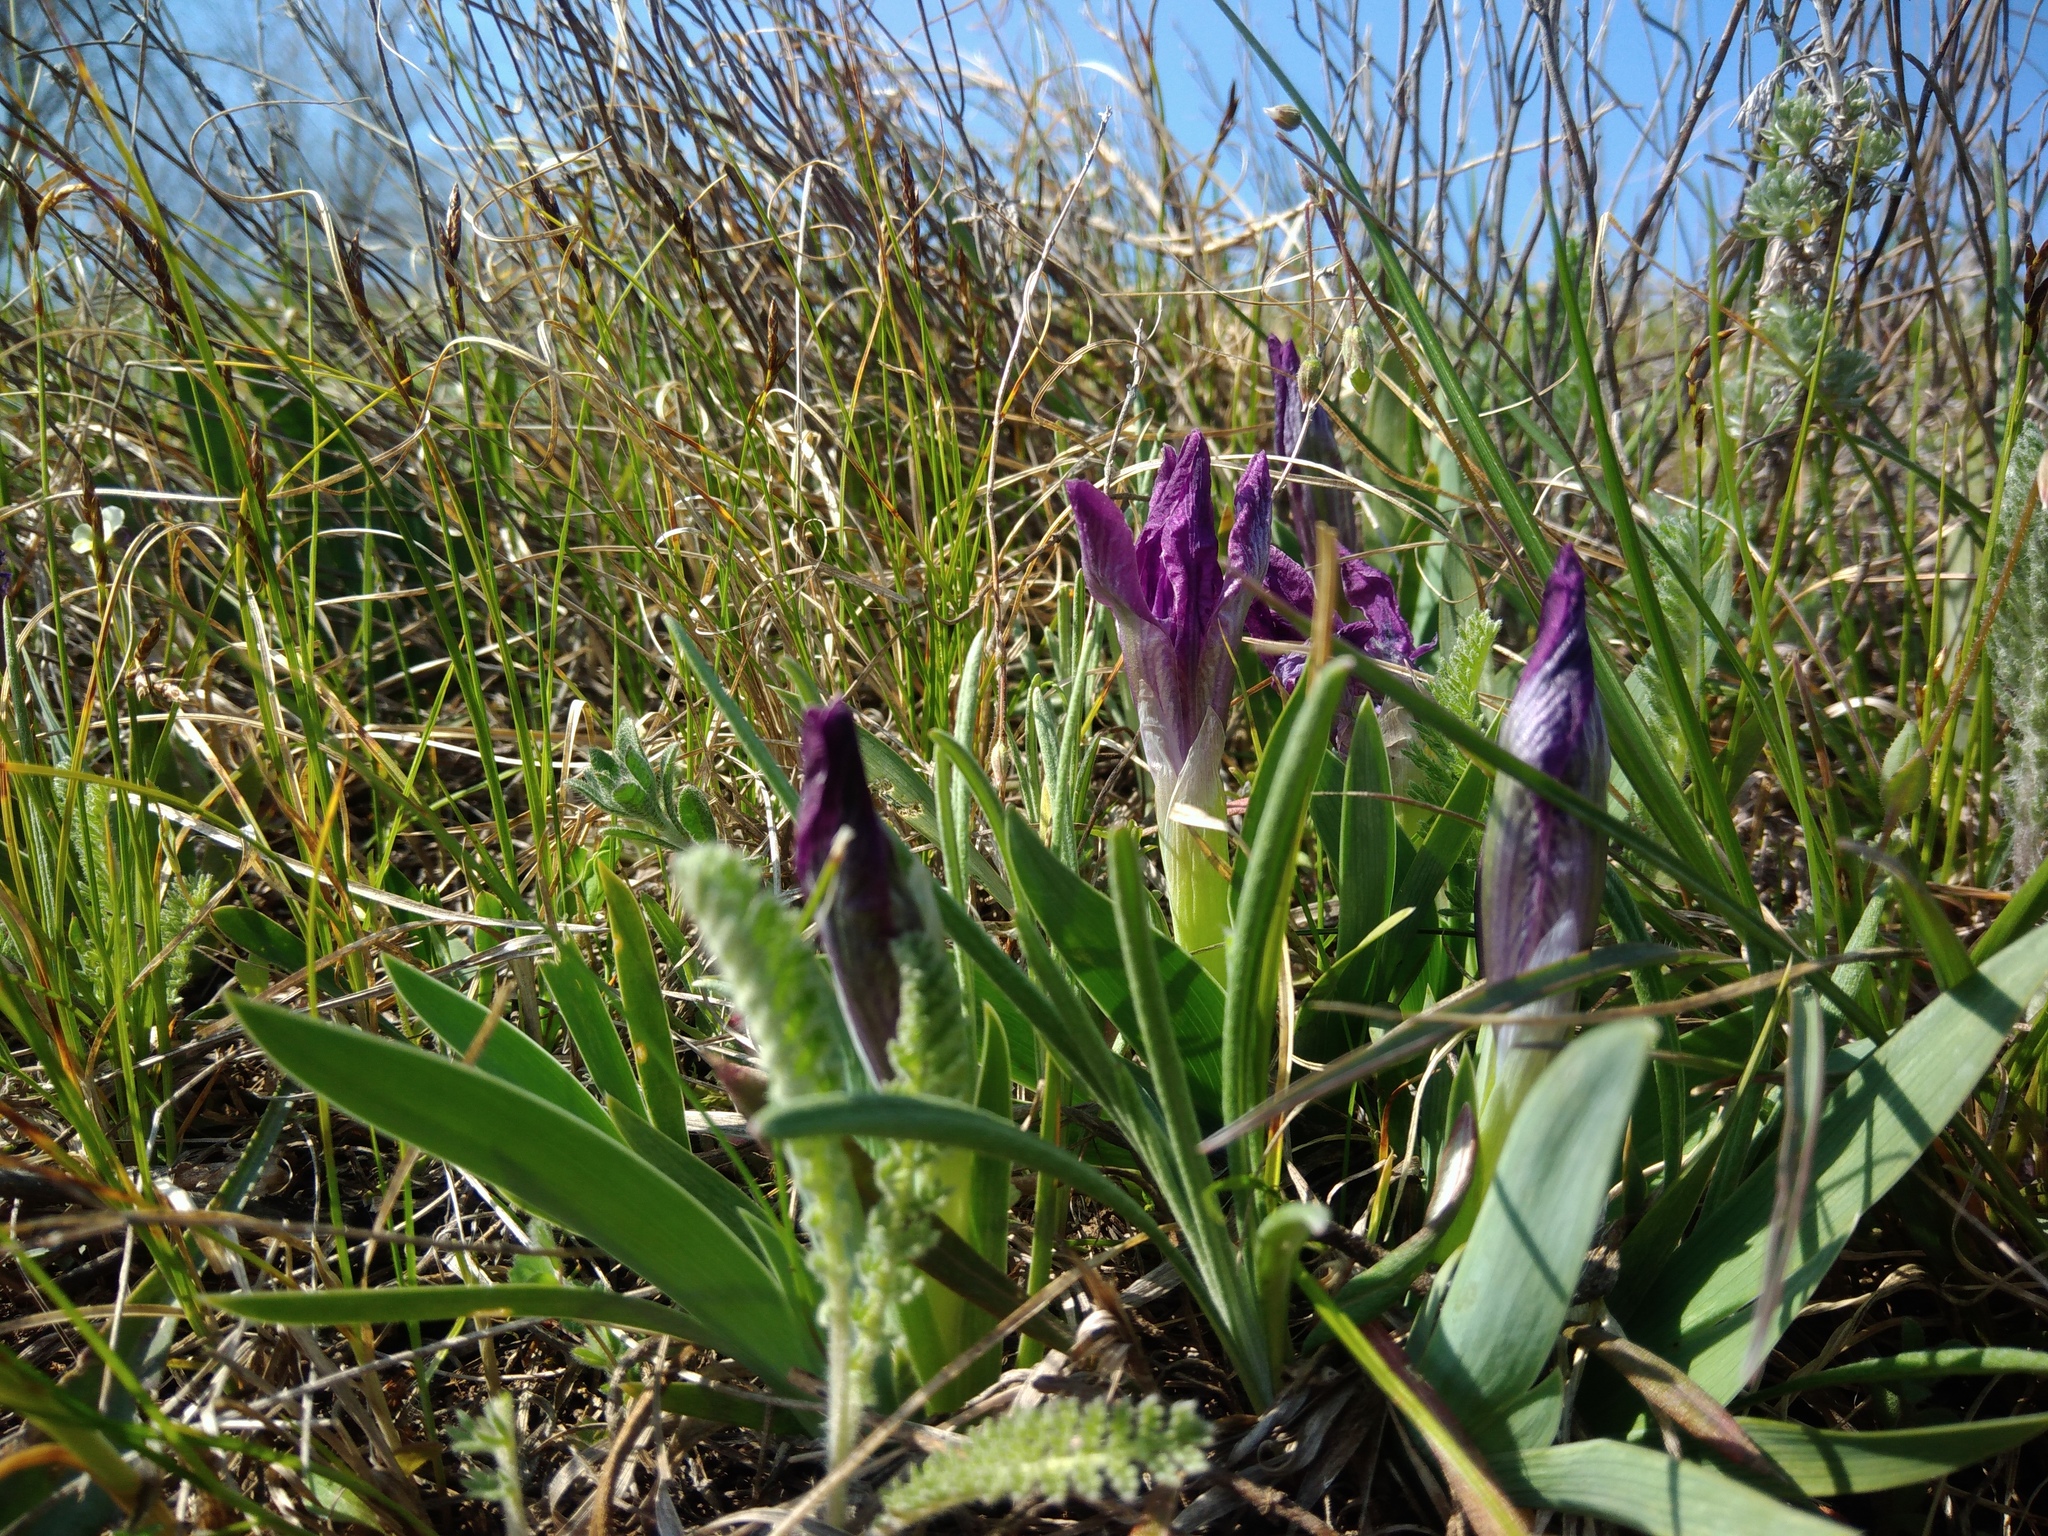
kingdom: Plantae
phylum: Tracheophyta
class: Liliopsida
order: Asparagales
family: Iridaceae
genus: Iris
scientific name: Iris pumila
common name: Dwarf iris
